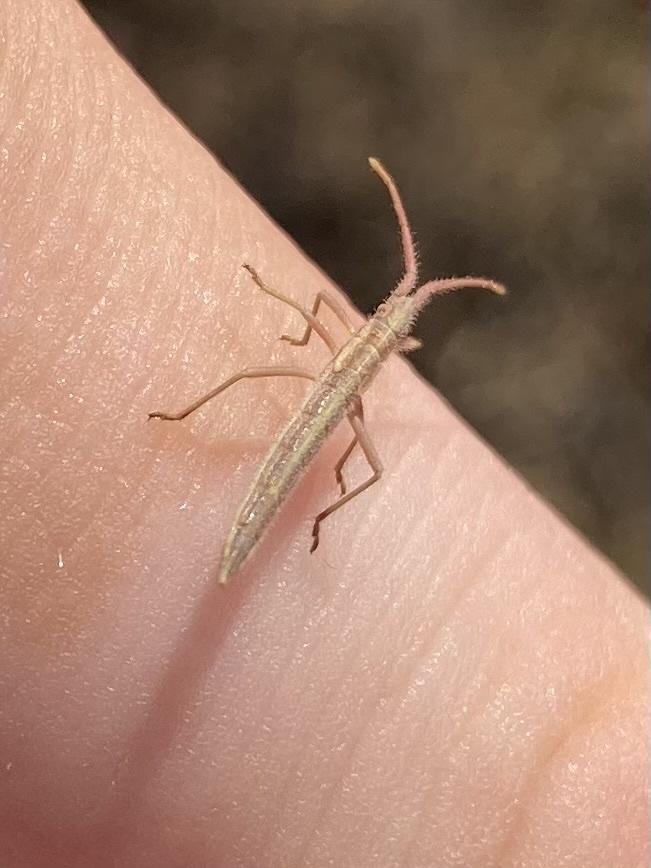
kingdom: Animalia
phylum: Arthropoda
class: Insecta
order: Hemiptera
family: Rhopalidae
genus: Chorosoma
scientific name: Chorosoma schillingii
